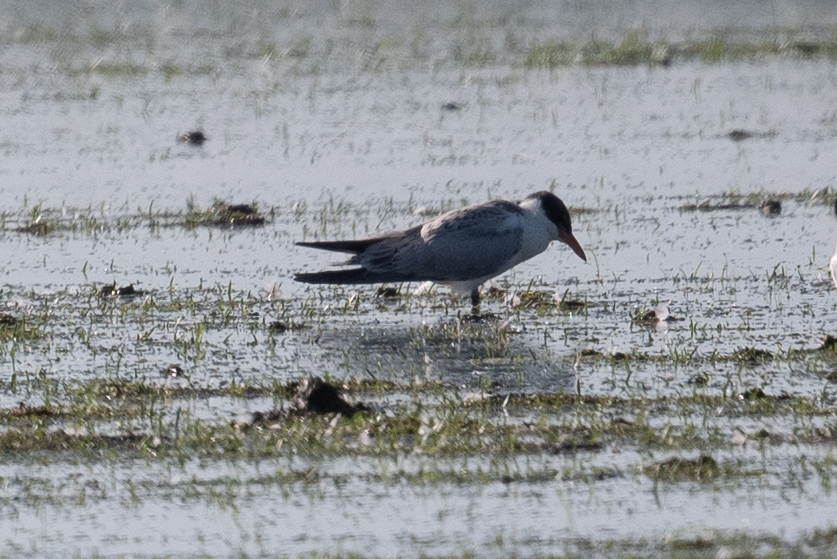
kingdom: Animalia
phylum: Chordata
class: Aves
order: Charadriiformes
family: Laridae
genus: Hydroprogne
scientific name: Hydroprogne caspia
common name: Caspian tern
